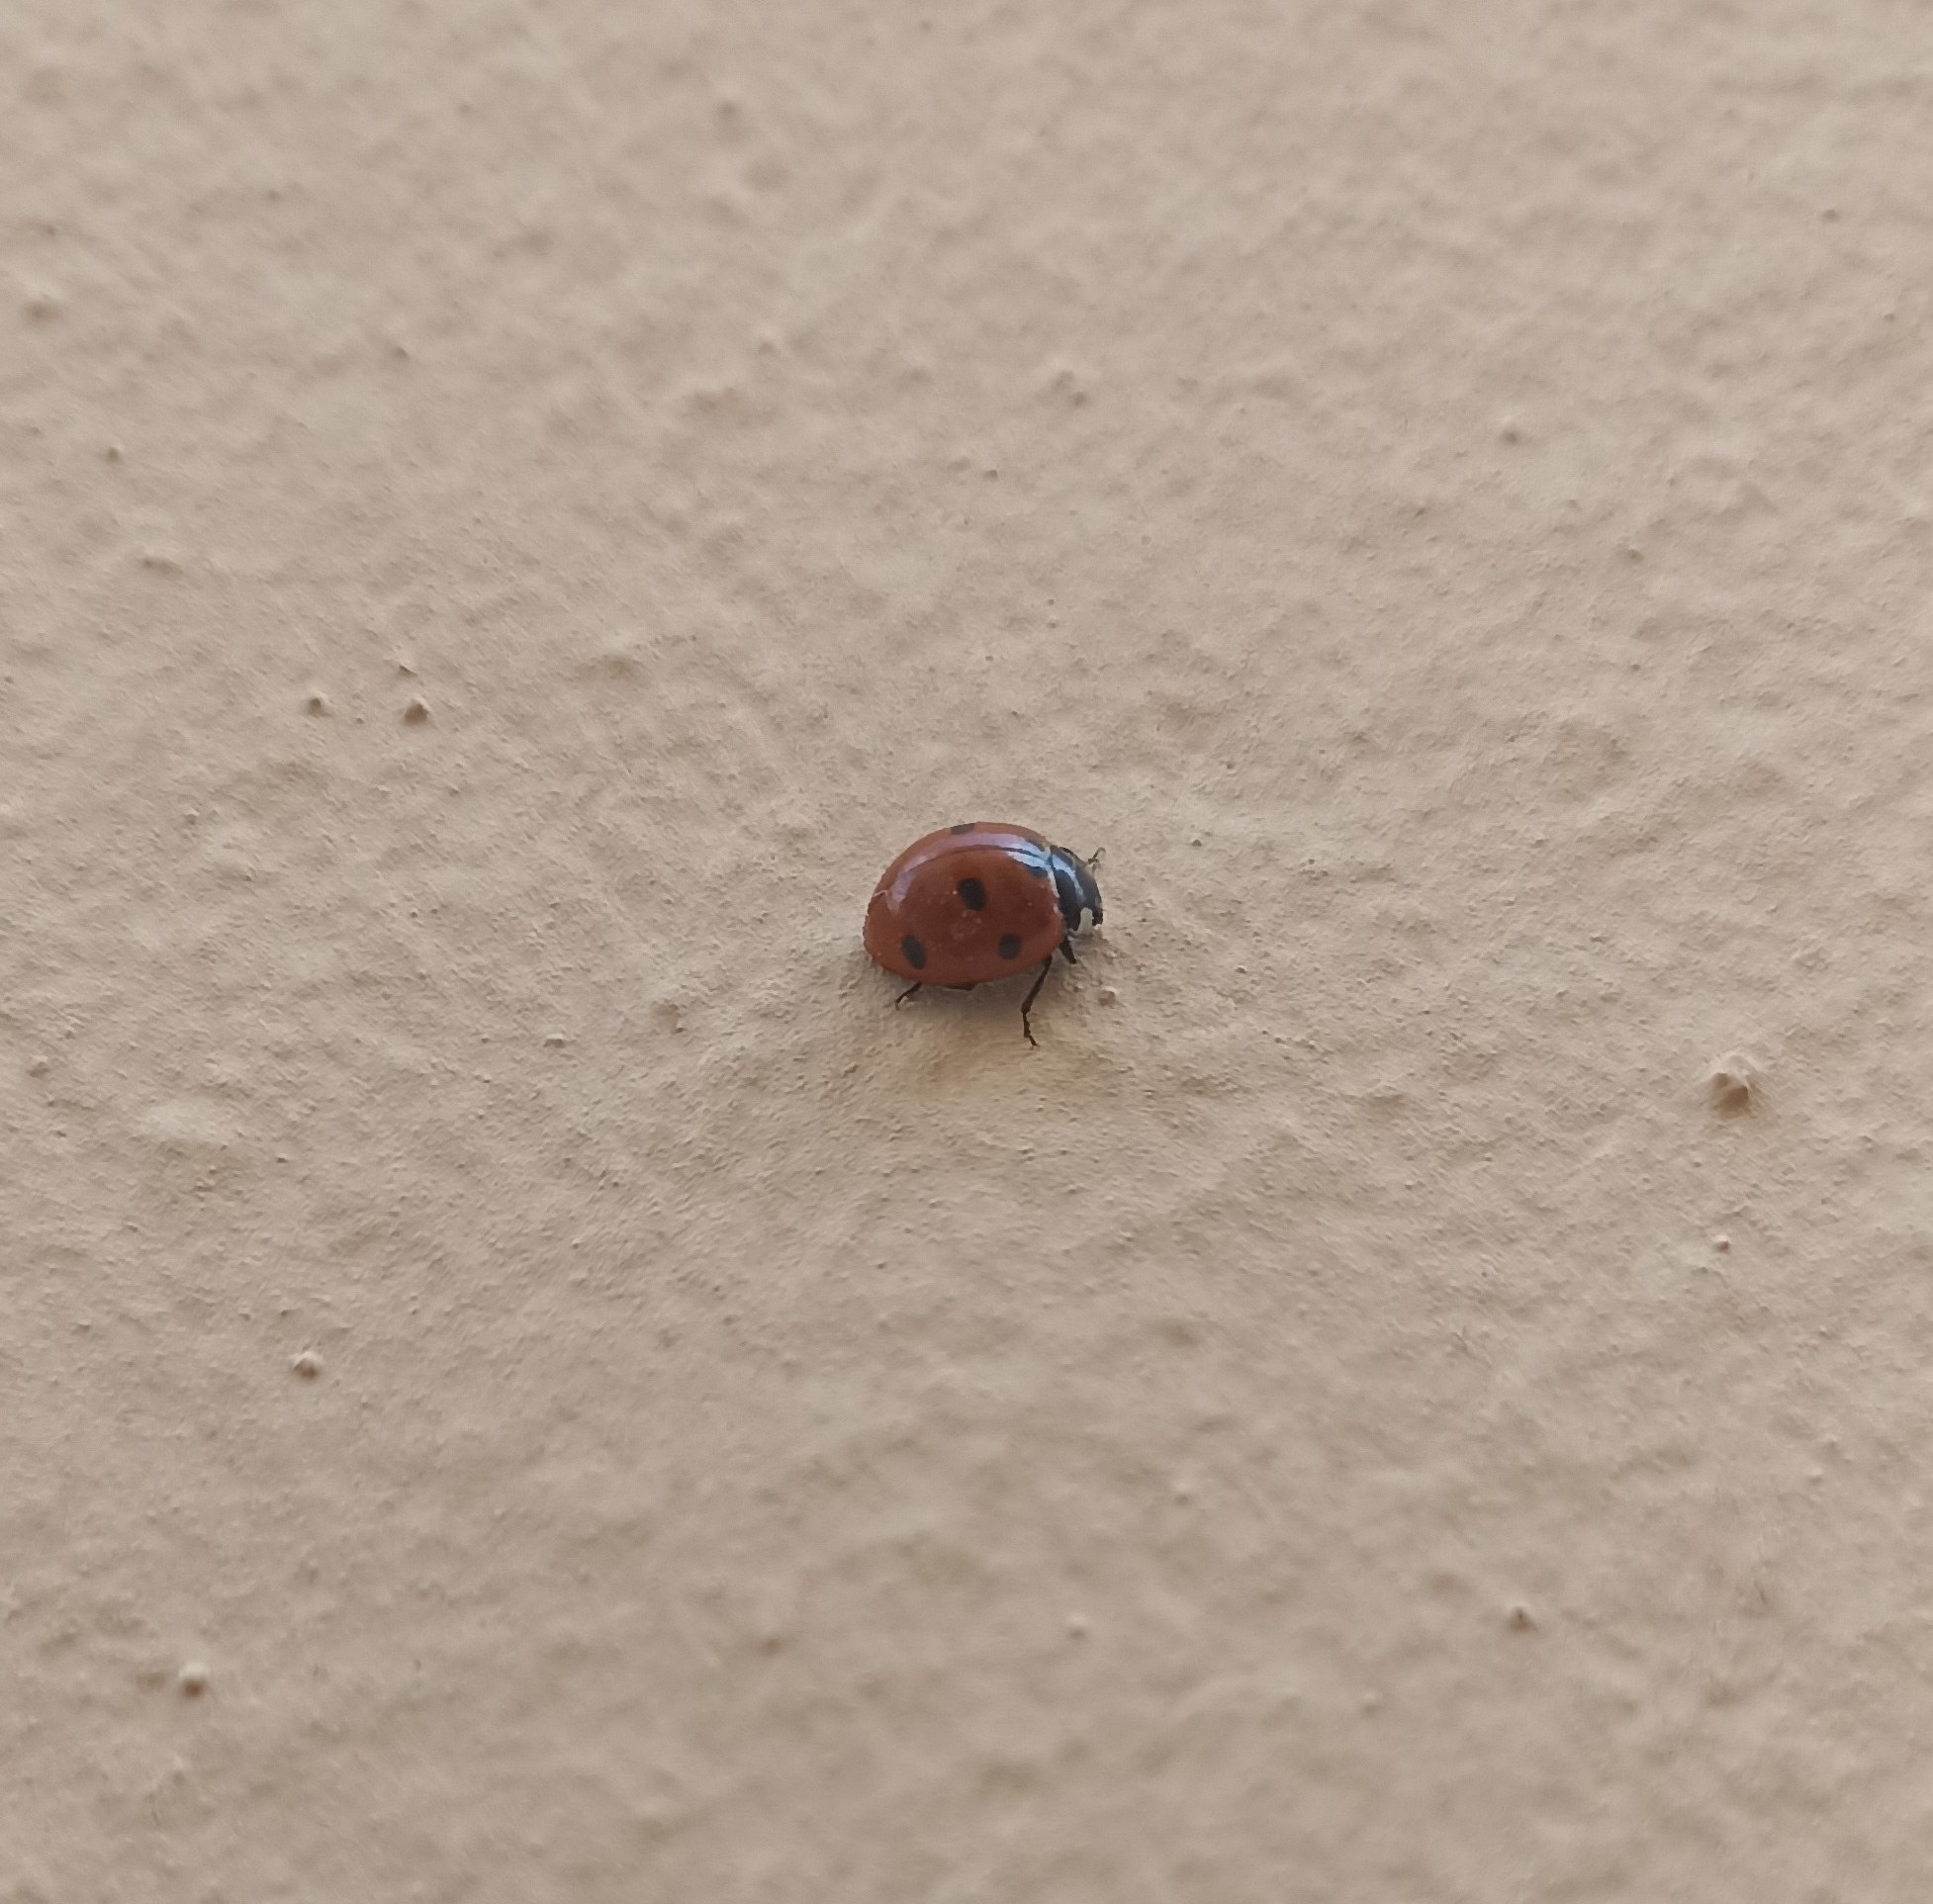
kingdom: Animalia
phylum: Arthropoda
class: Insecta
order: Coleoptera
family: Coccinellidae
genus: Coccinella
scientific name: Coccinella septempunctata
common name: Sevenspotted lady beetle
